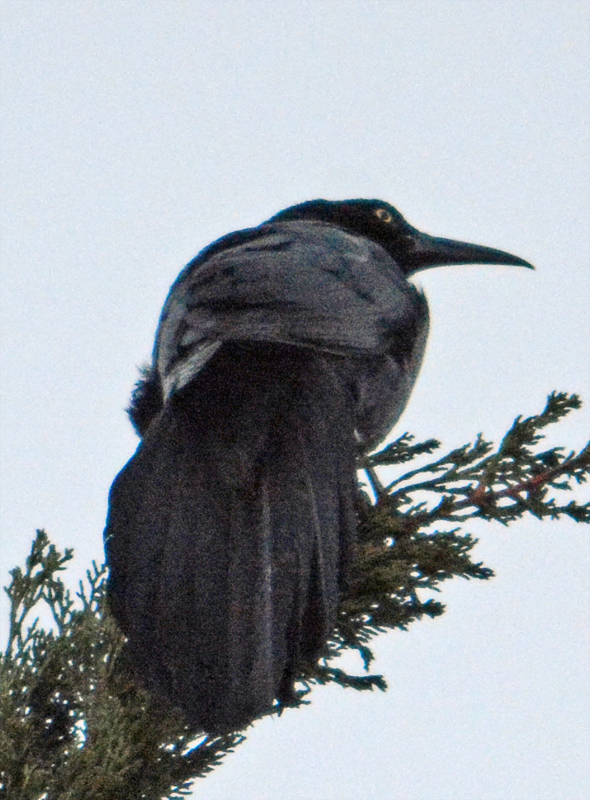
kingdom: Animalia
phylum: Chordata
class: Aves
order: Passeriformes
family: Icteridae
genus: Quiscalus
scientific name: Quiscalus mexicanus
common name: Great-tailed grackle
